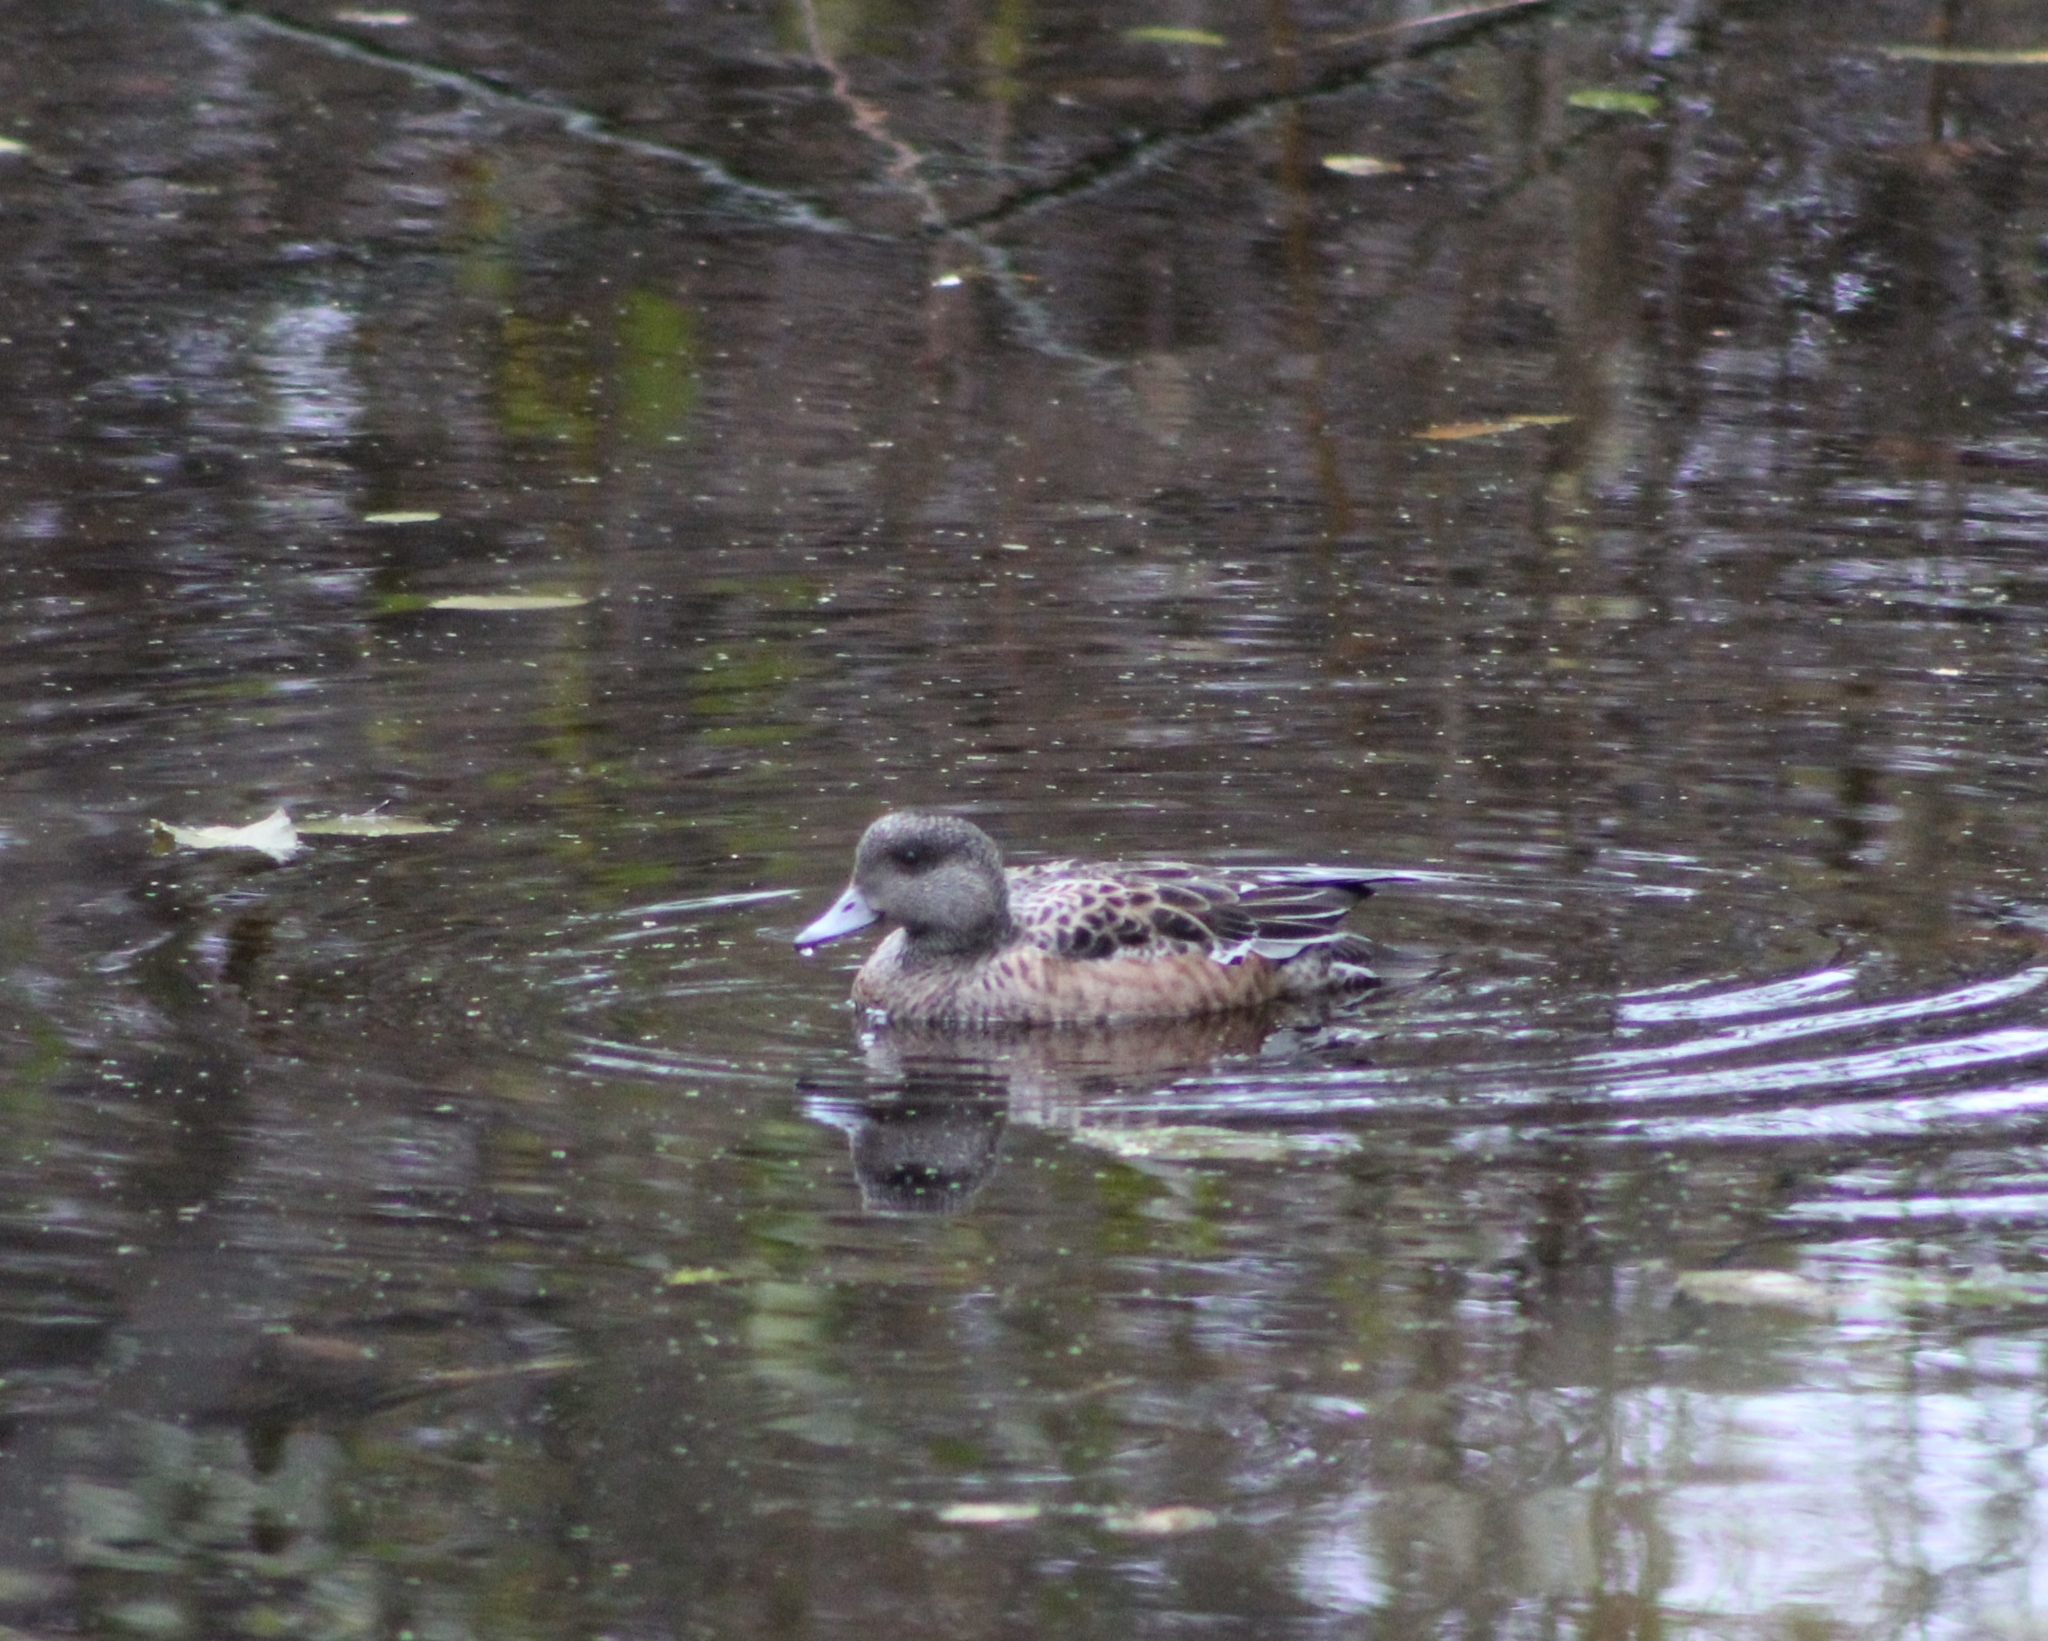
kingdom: Animalia
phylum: Chordata
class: Aves
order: Anseriformes
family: Anatidae
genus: Mareca
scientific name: Mareca americana
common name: American wigeon
